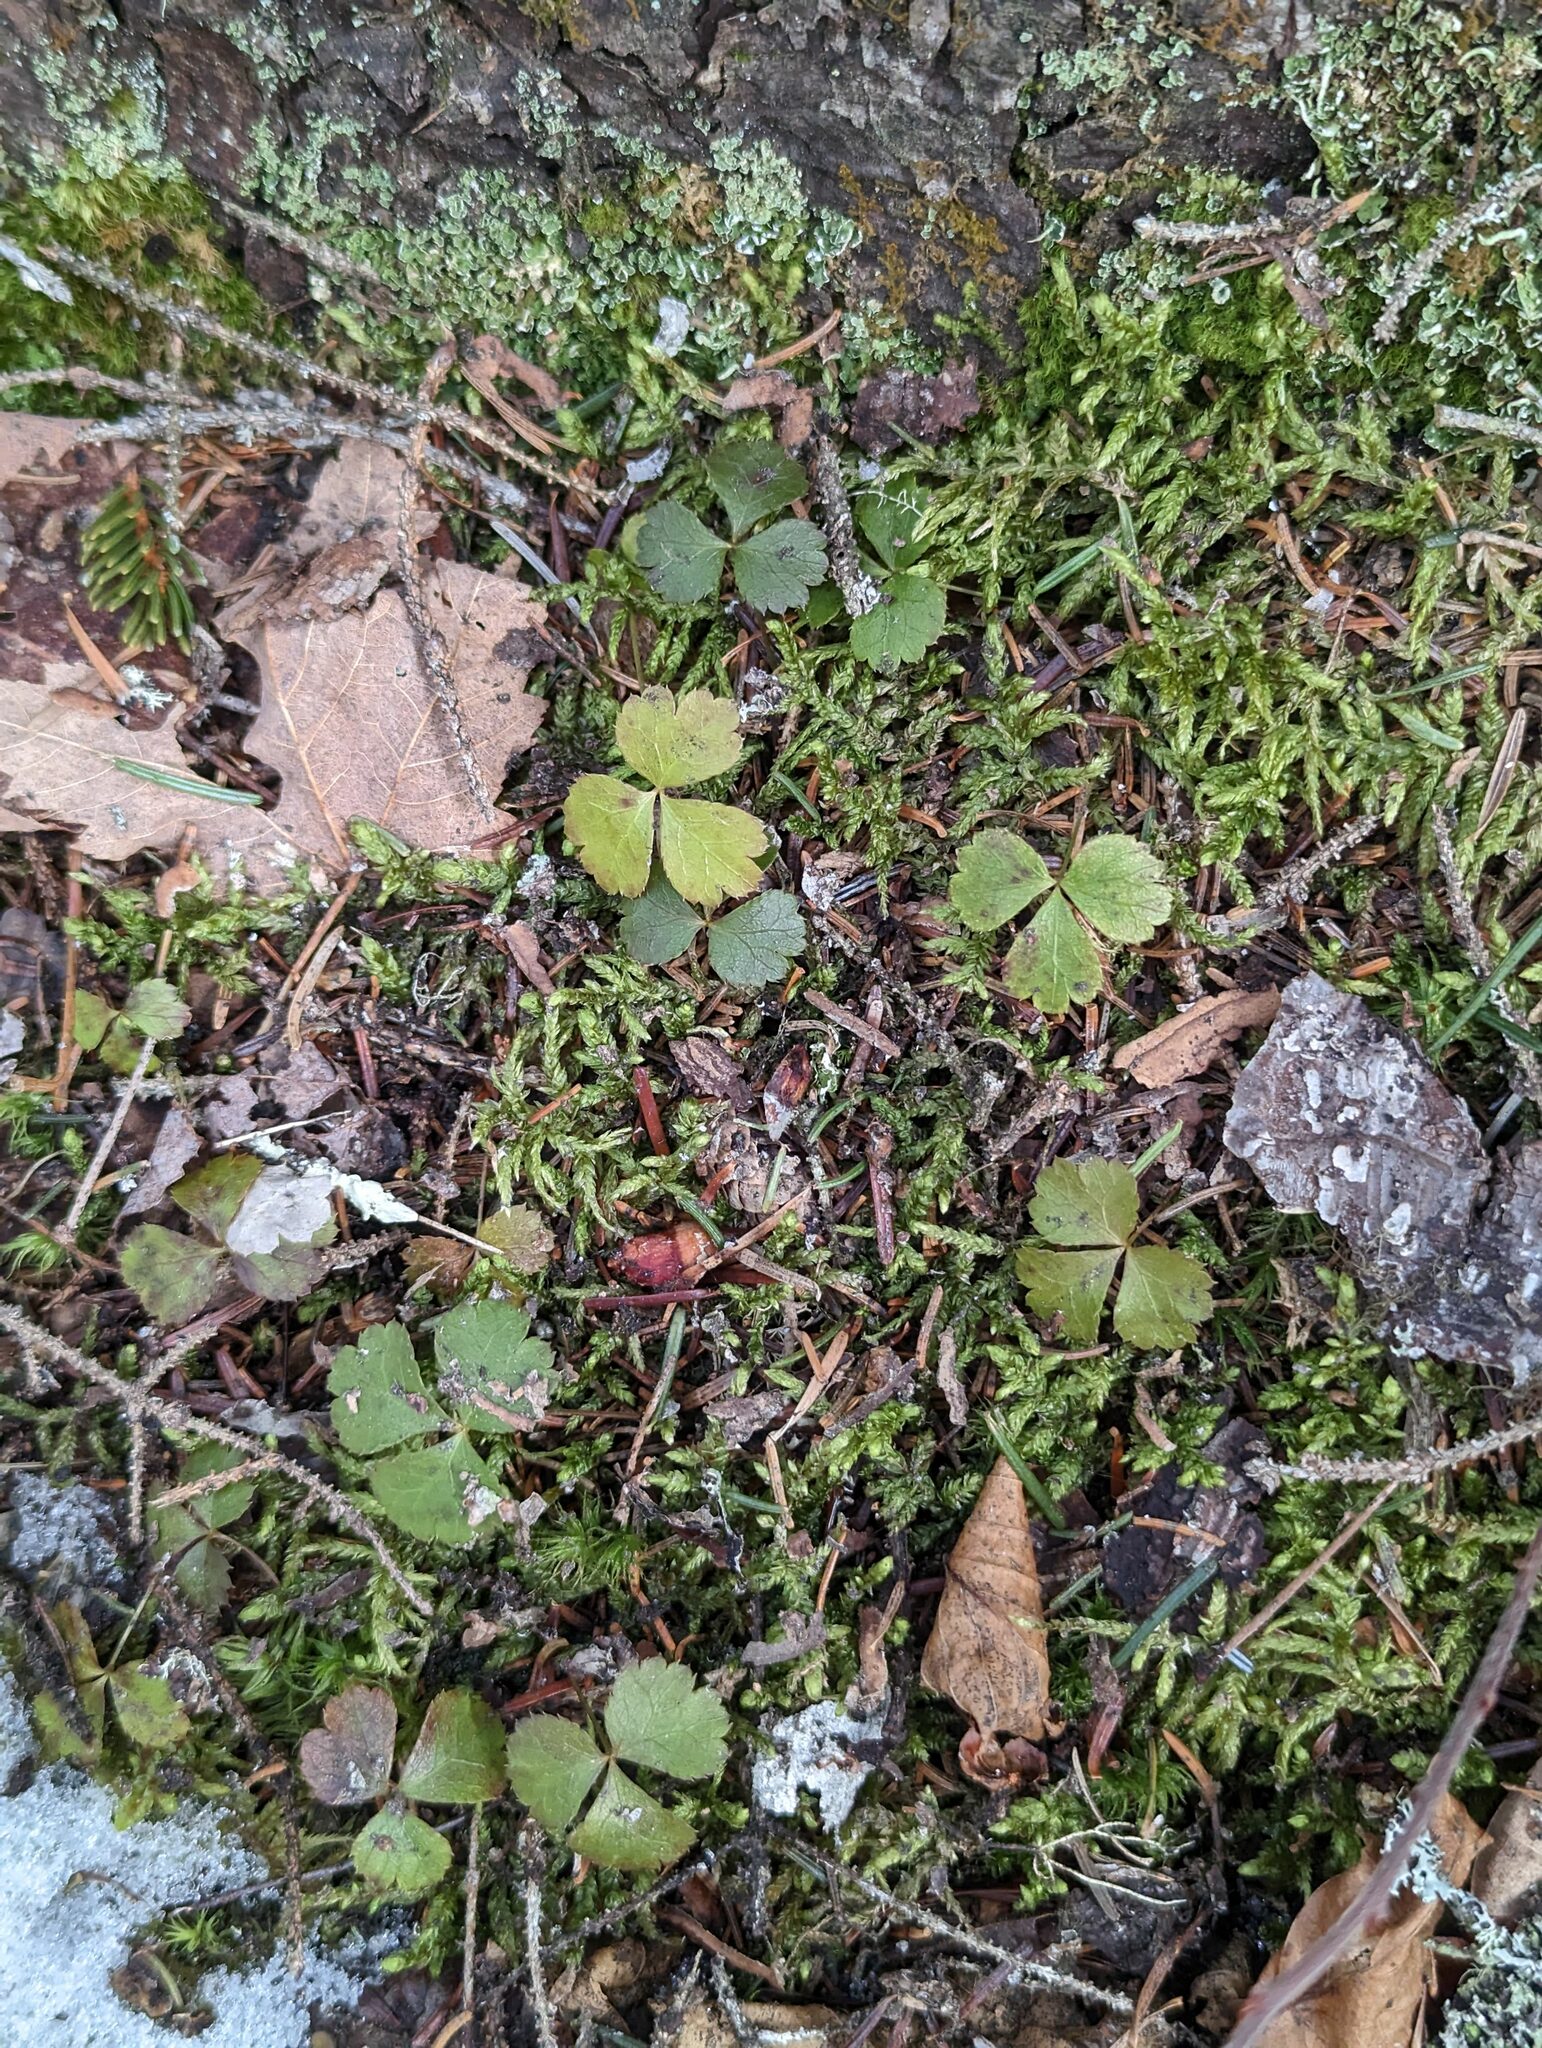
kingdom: Plantae
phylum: Tracheophyta
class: Magnoliopsida
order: Ranunculales
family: Ranunculaceae
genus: Coptis
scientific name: Coptis trifolia
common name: Canker-root
